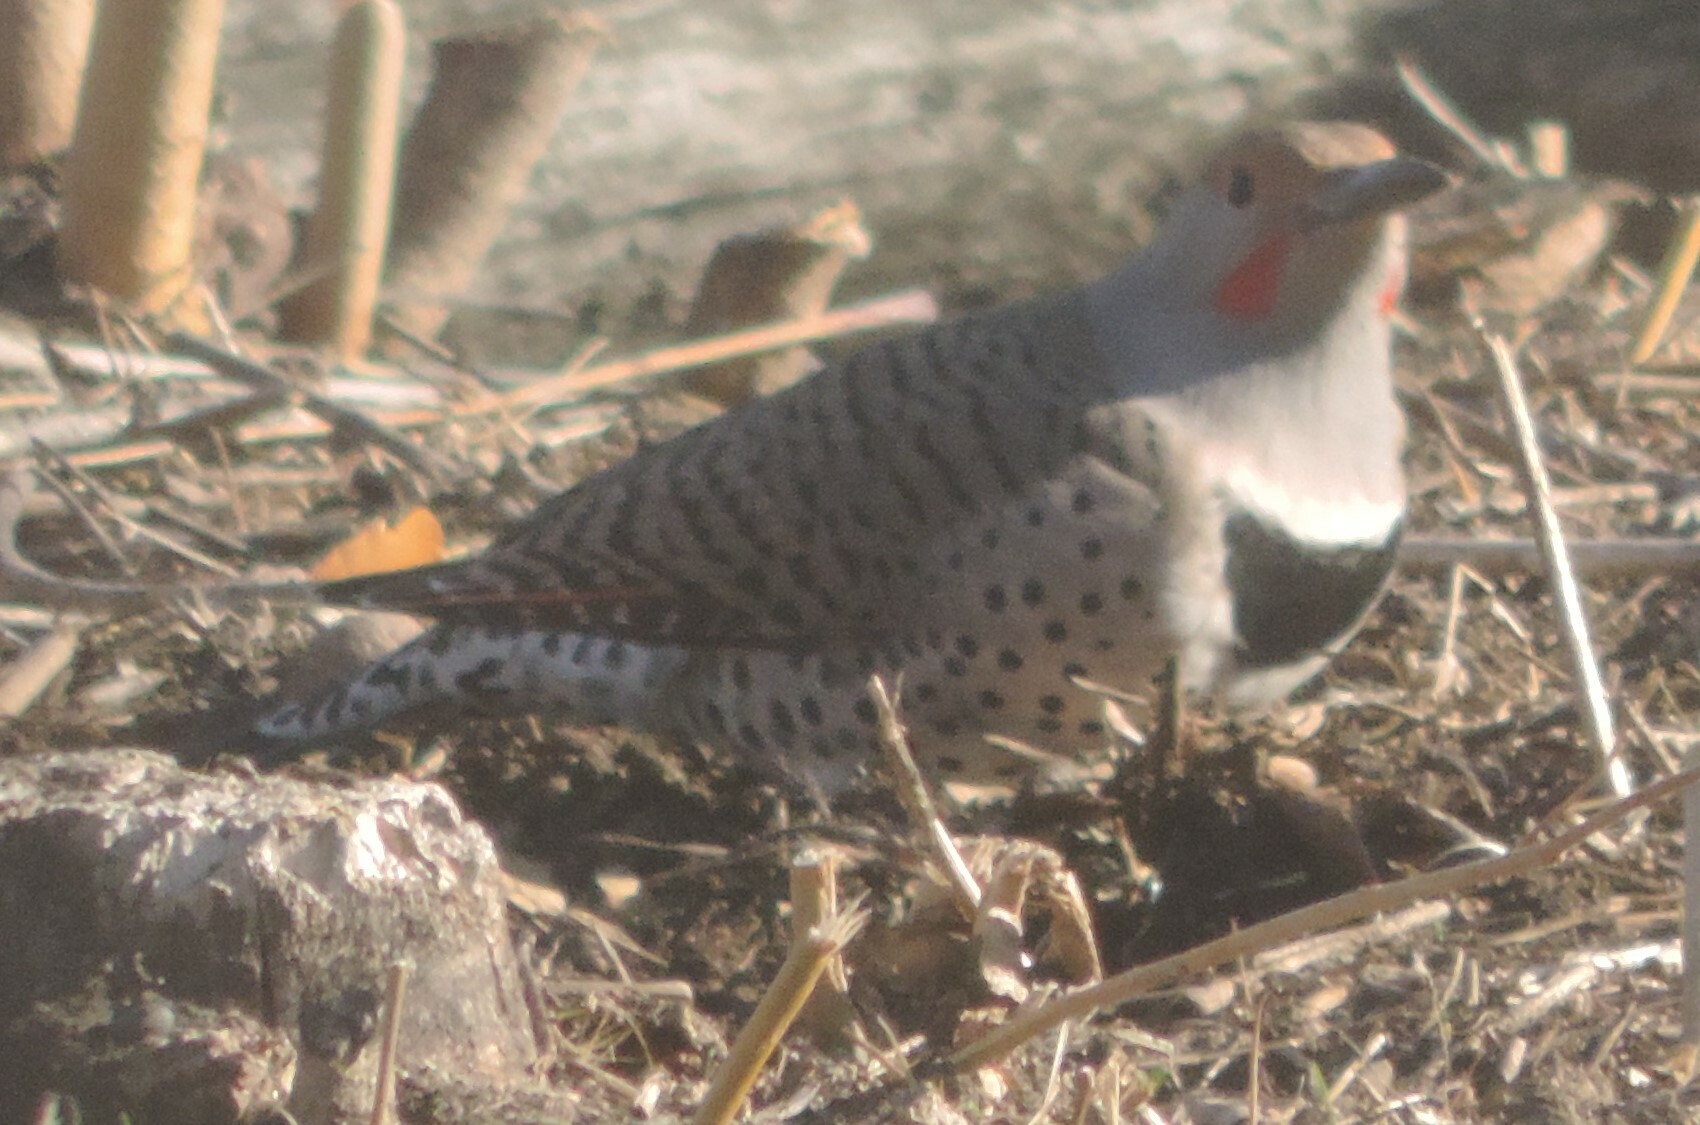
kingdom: Animalia
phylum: Chordata
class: Aves
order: Piciformes
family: Picidae
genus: Colaptes
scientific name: Colaptes auratus
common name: Northern flicker
